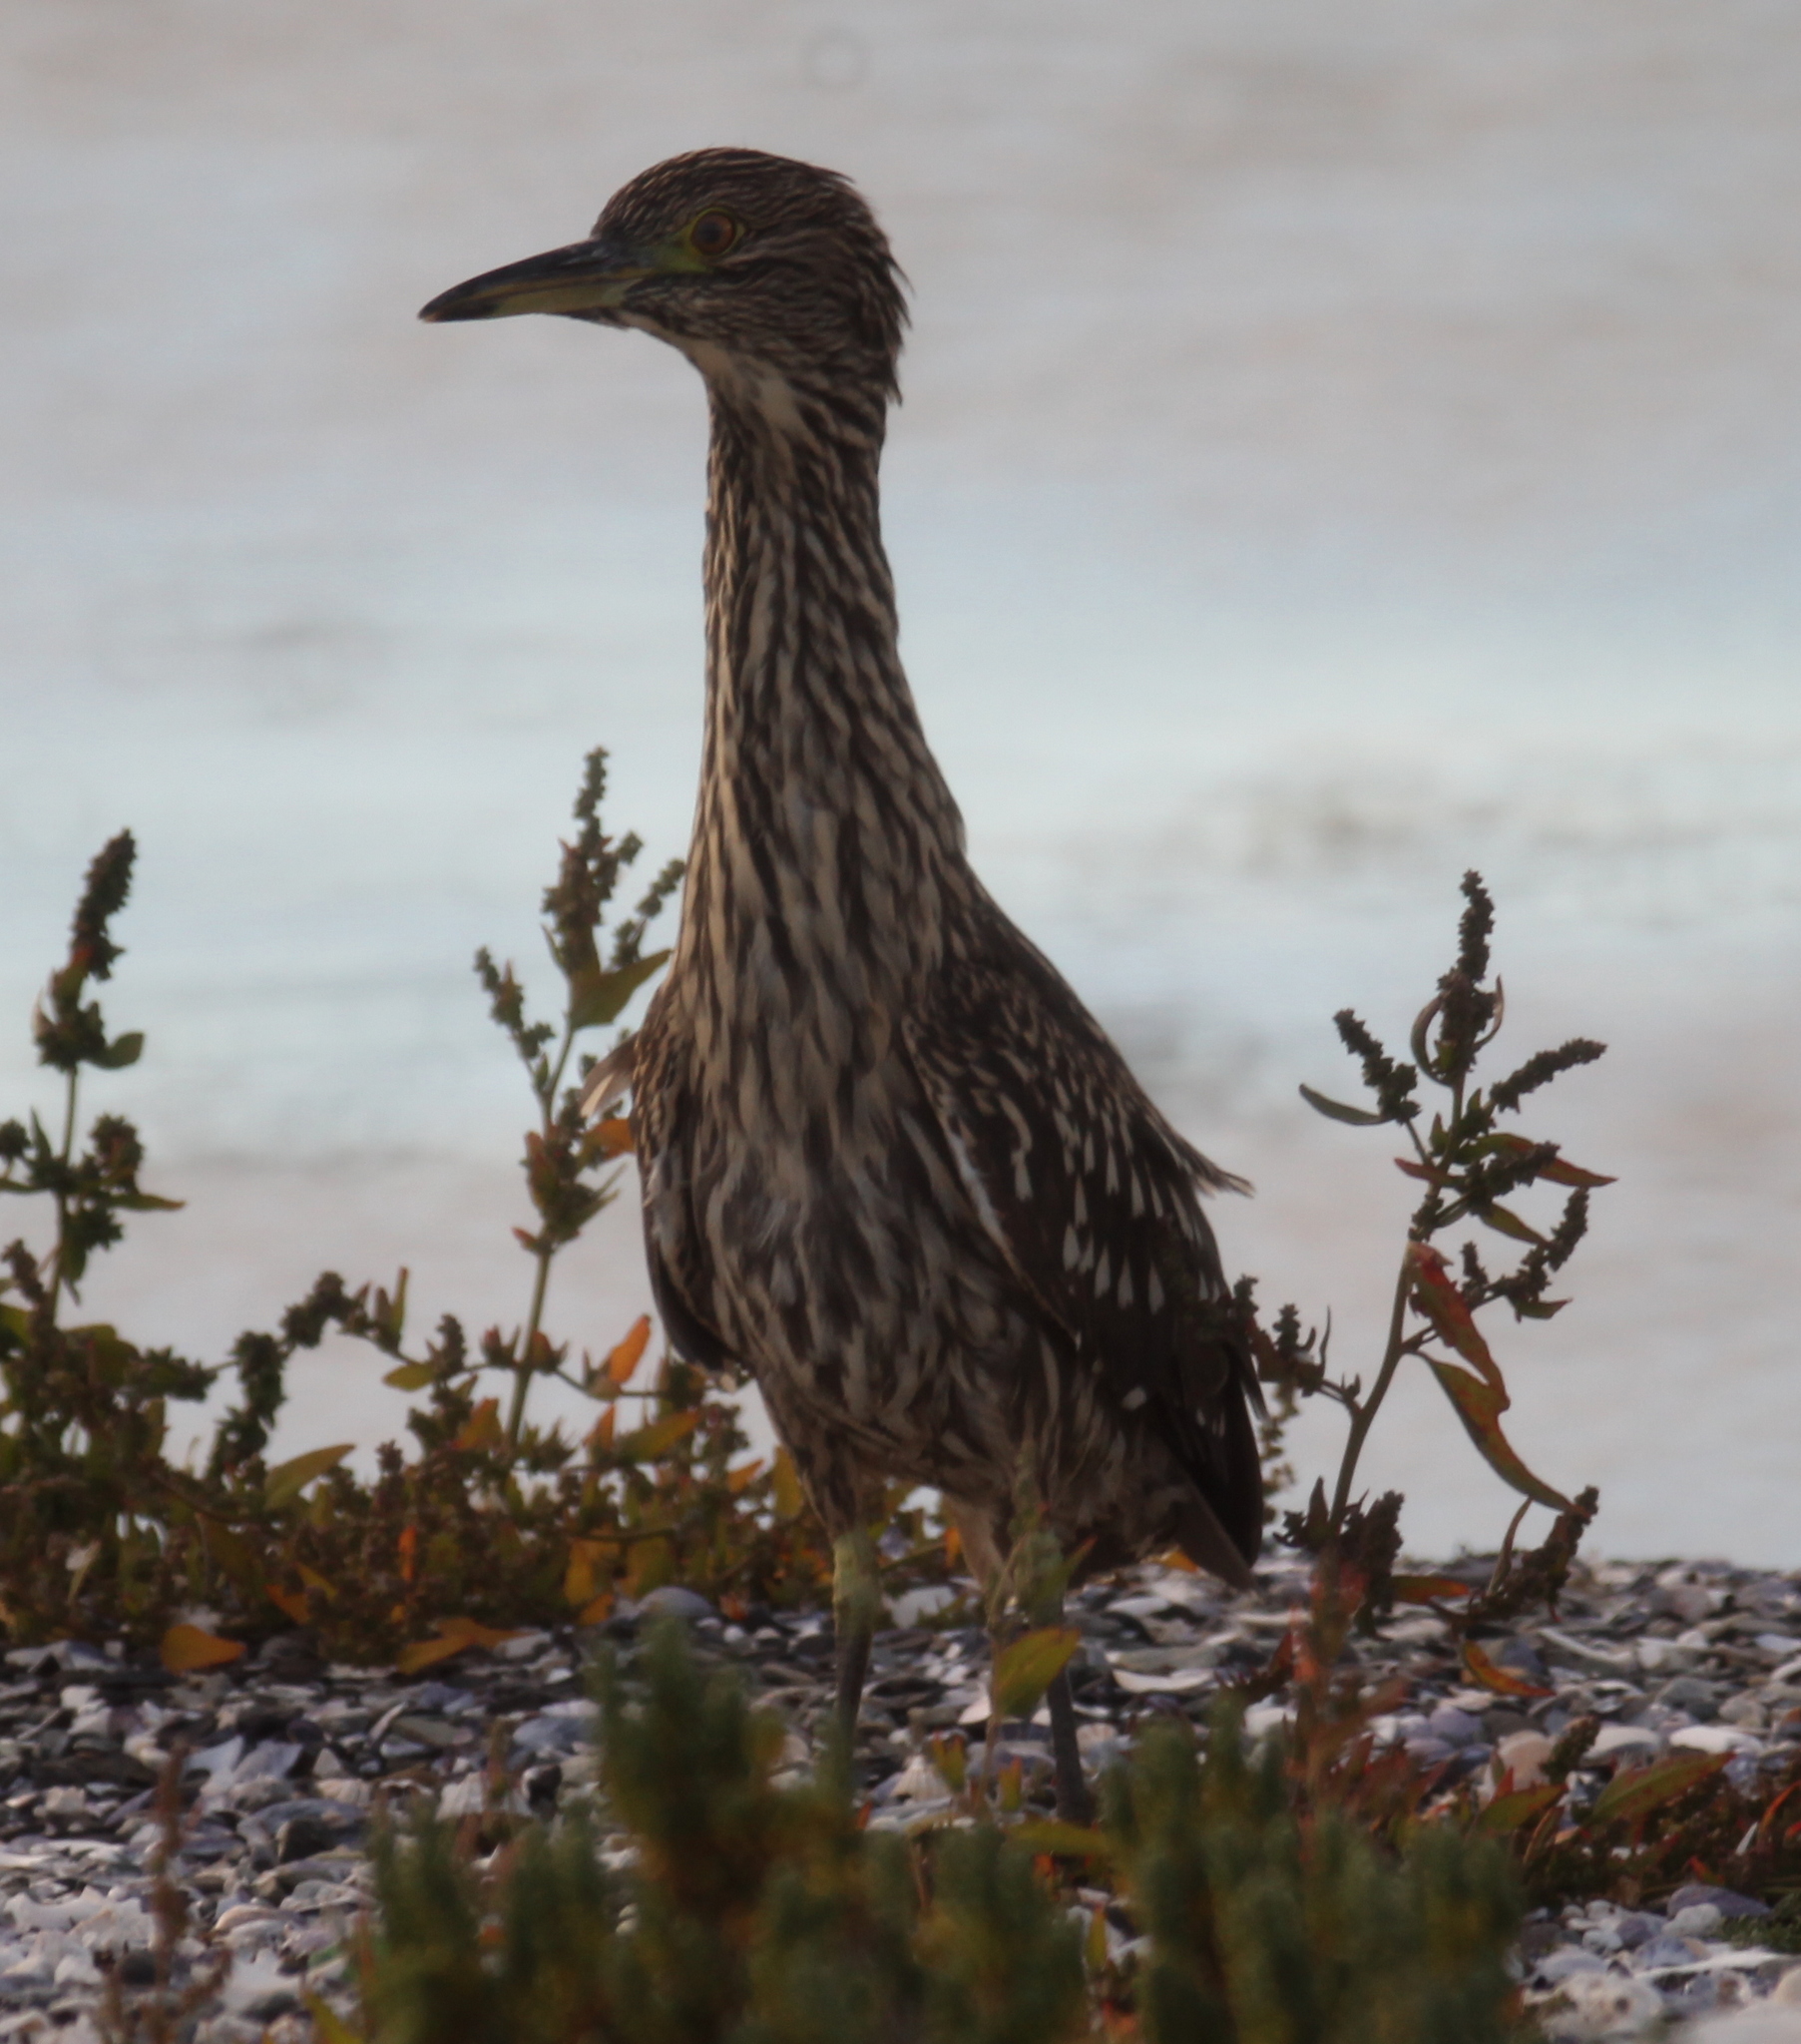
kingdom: Animalia
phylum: Chordata
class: Aves
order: Pelecaniformes
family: Ardeidae
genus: Nycticorax
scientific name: Nycticorax nycticorax
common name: Black-crowned night heron
